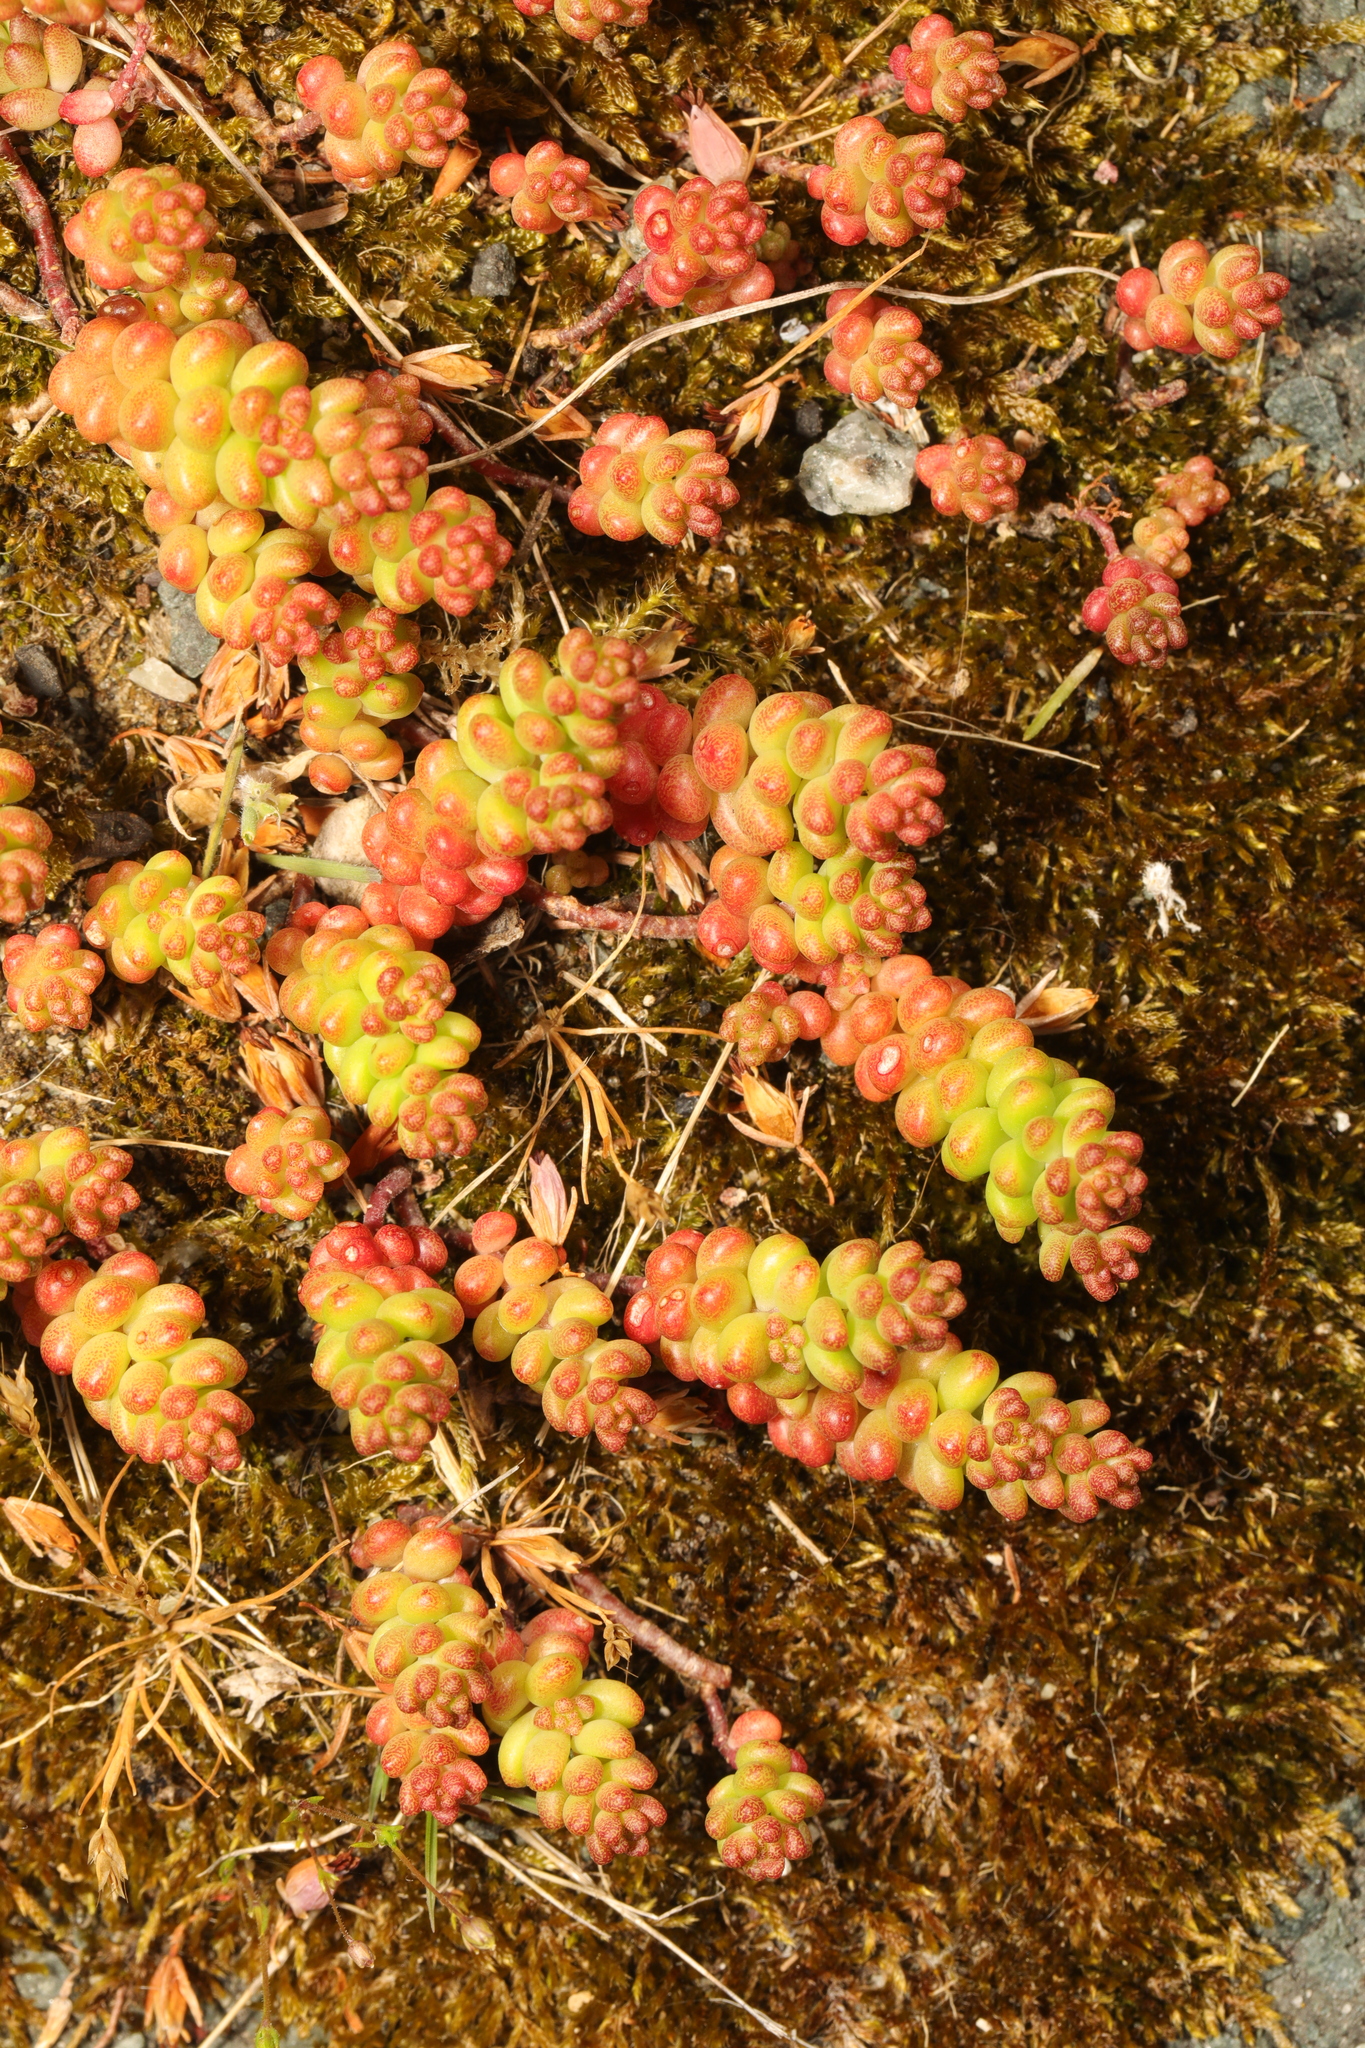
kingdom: Plantae
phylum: Tracheophyta
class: Magnoliopsida
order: Saxifragales
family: Crassulaceae
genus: Sedum
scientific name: Sedum album
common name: White stonecrop
